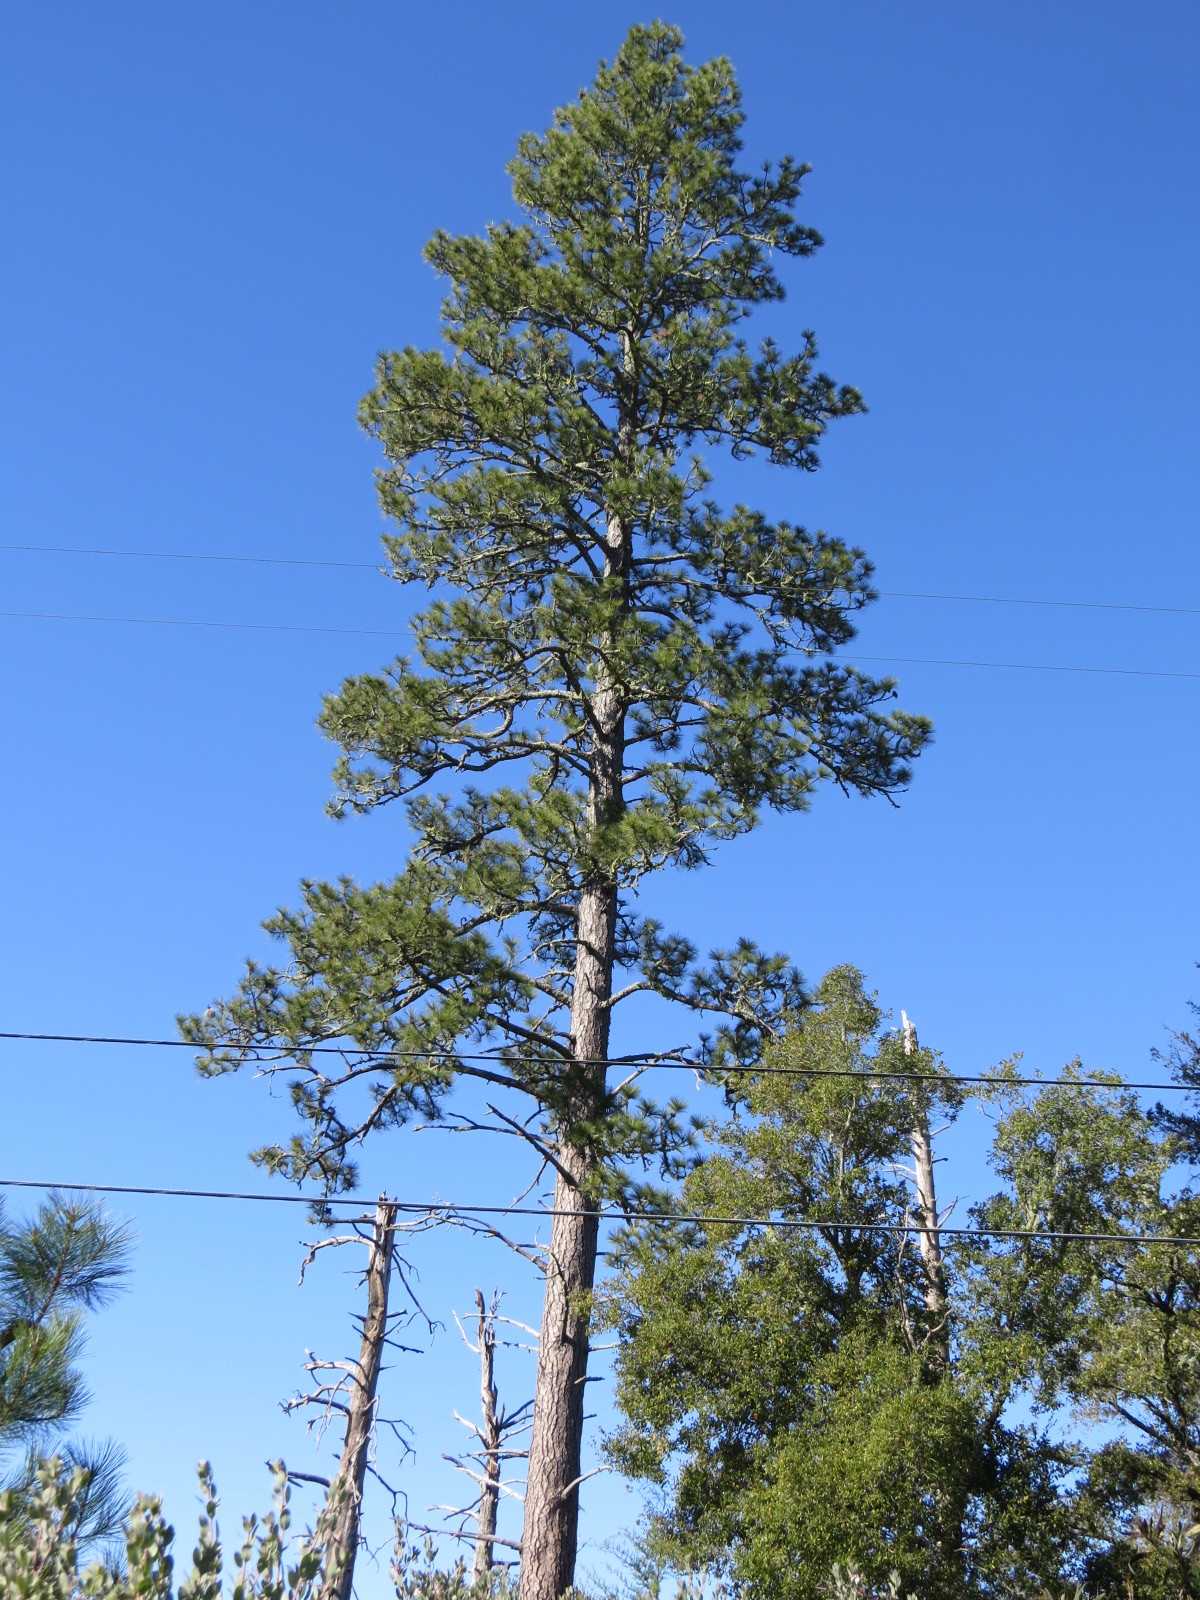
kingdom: Plantae
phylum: Tracheophyta
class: Pinopsida
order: Pinales
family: Pinaceae
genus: Pinus
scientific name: Pinus ponderosa
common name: Western yellow-pine
